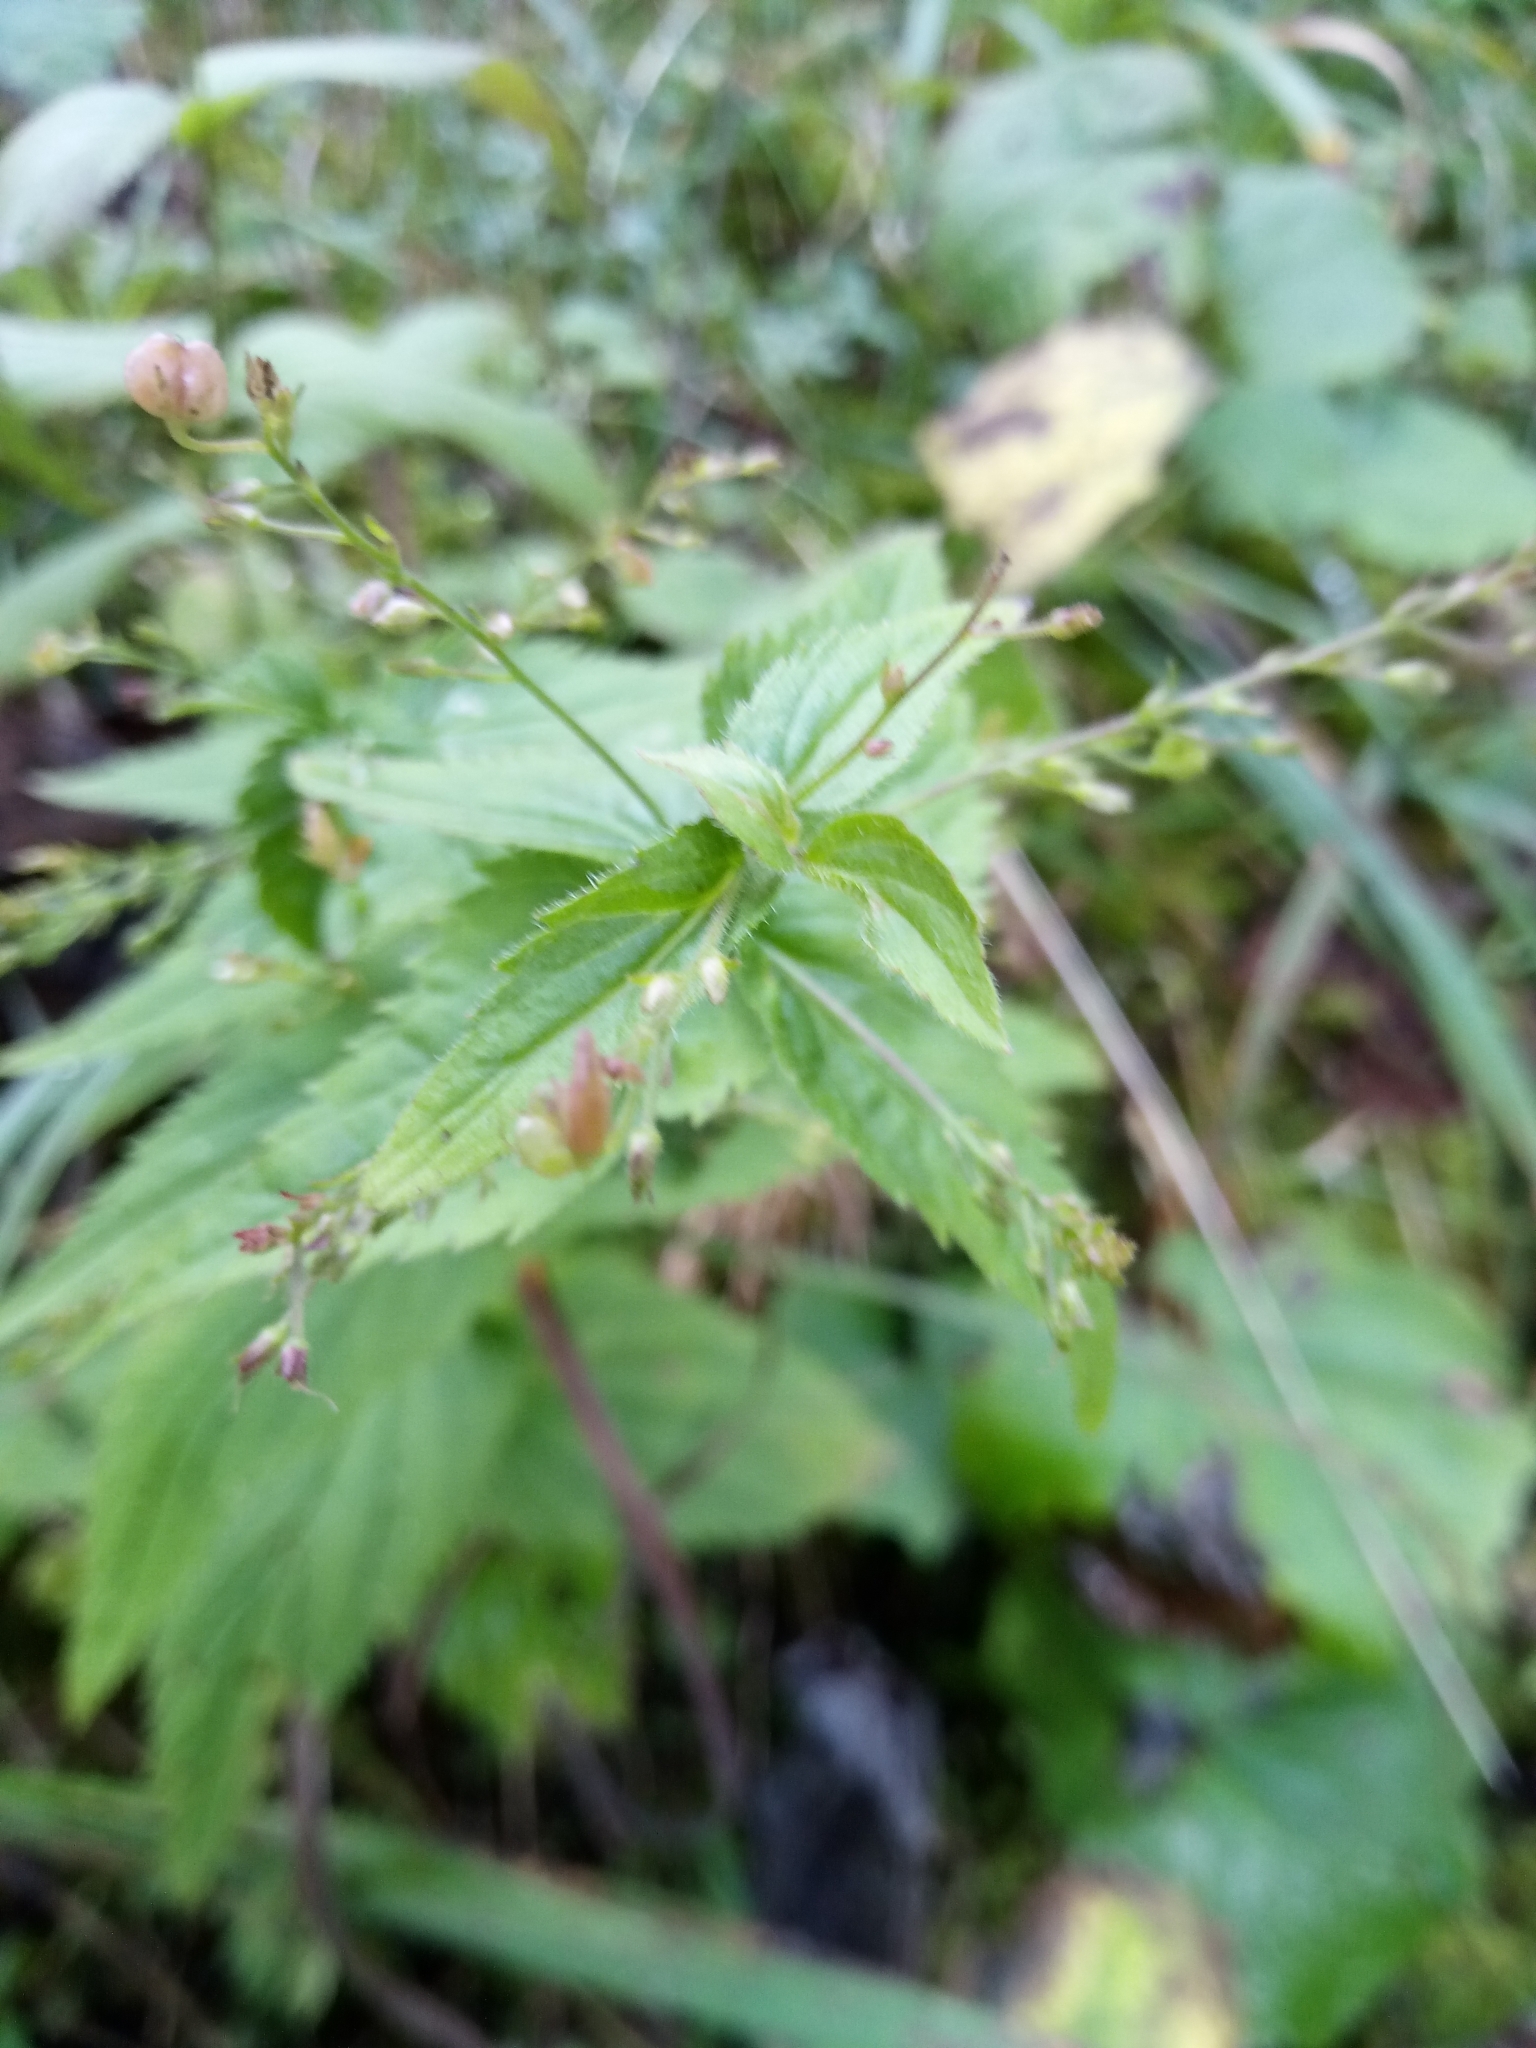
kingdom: Plantae
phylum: Tracheophyta
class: Magnoliopsida
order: Lamiales
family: Plantaginaceae
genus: Veronica
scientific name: Veronica urticifolia
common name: Nettle-leaf speedwell
